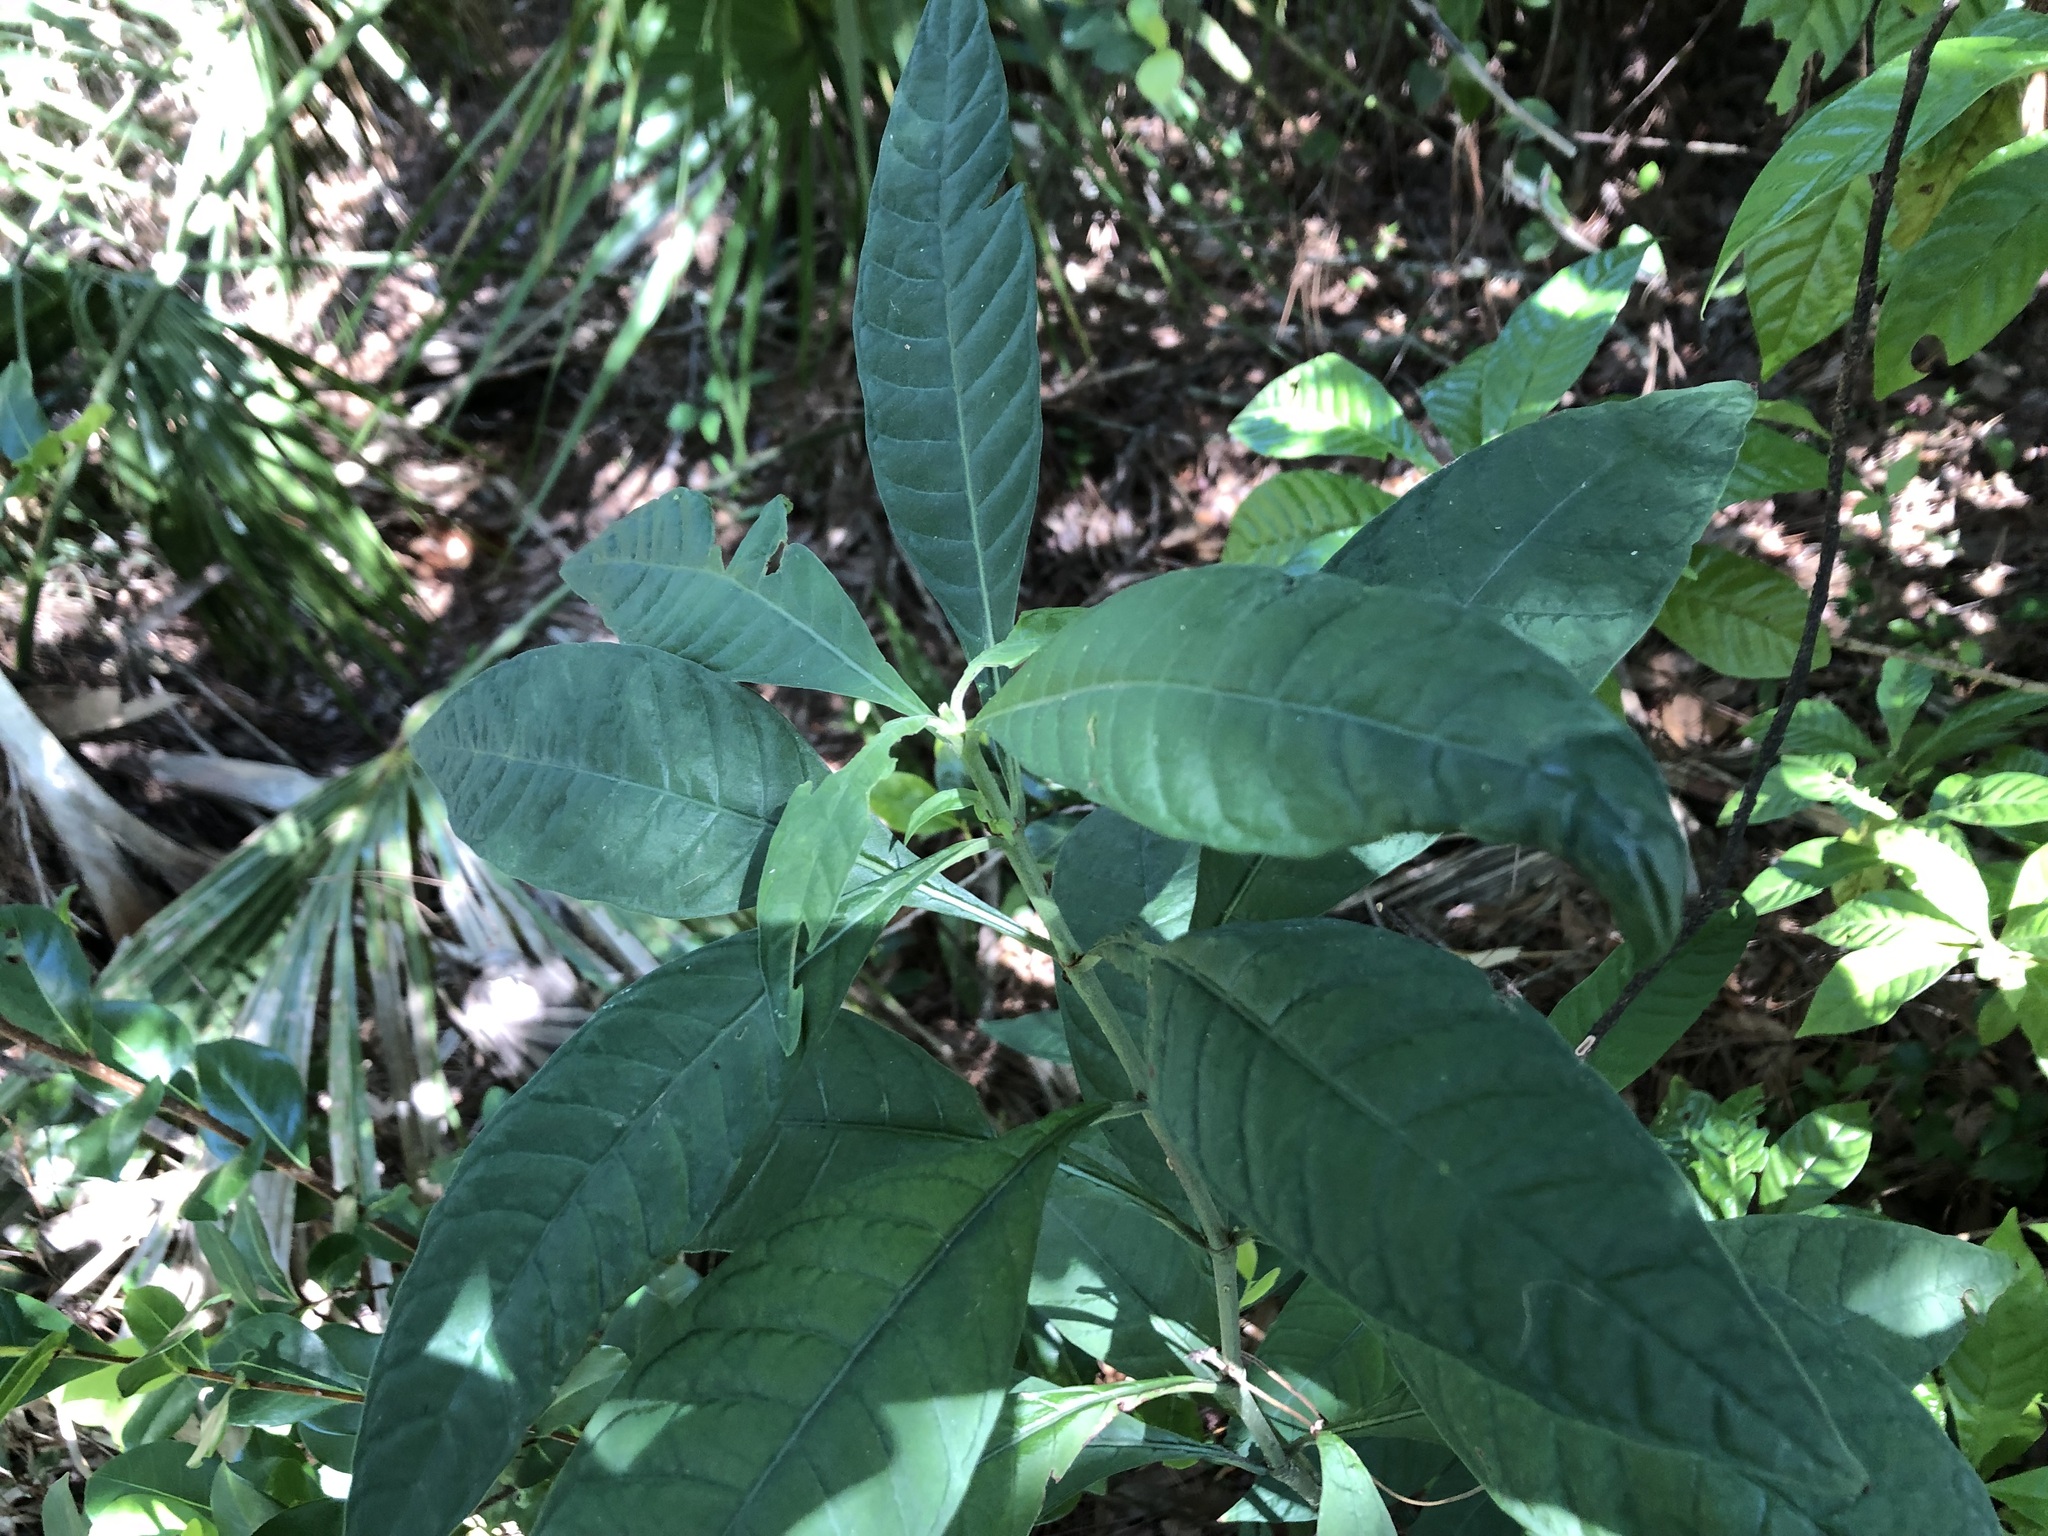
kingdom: Plantae
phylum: Tracheophyta
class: Magnoliopsida
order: Gentianales
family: Rubiaceae
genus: Psychotria
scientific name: Psychotria tenuifolia
